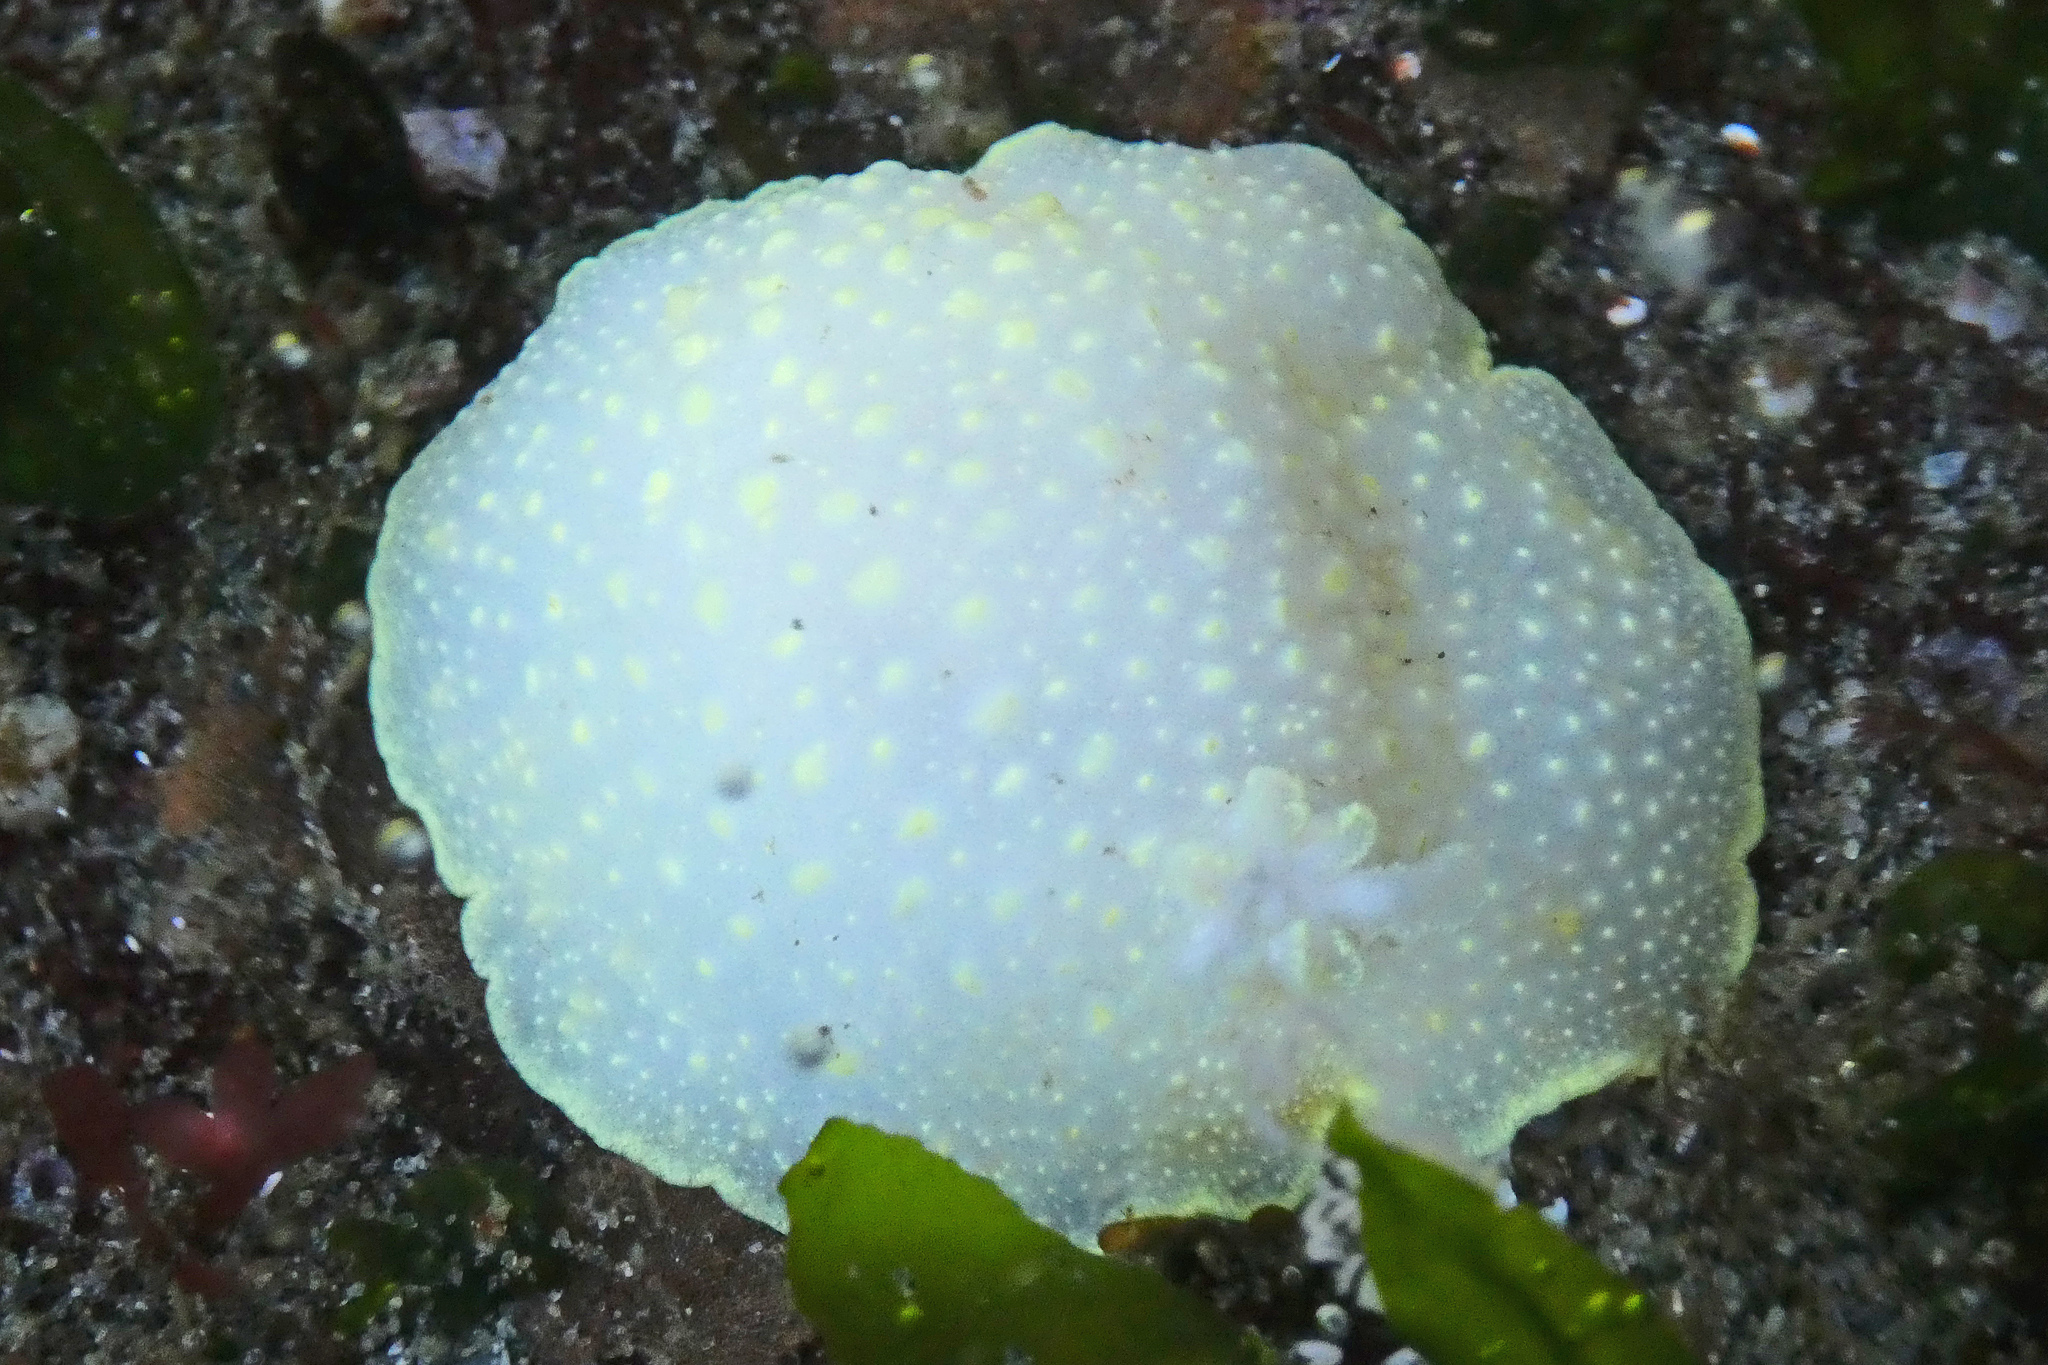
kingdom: Animalia
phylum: Mollusca
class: Gastropoda
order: Nudibranchia
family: Cadlinidae
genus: Cadlina
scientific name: Cadlina luteomarginata
